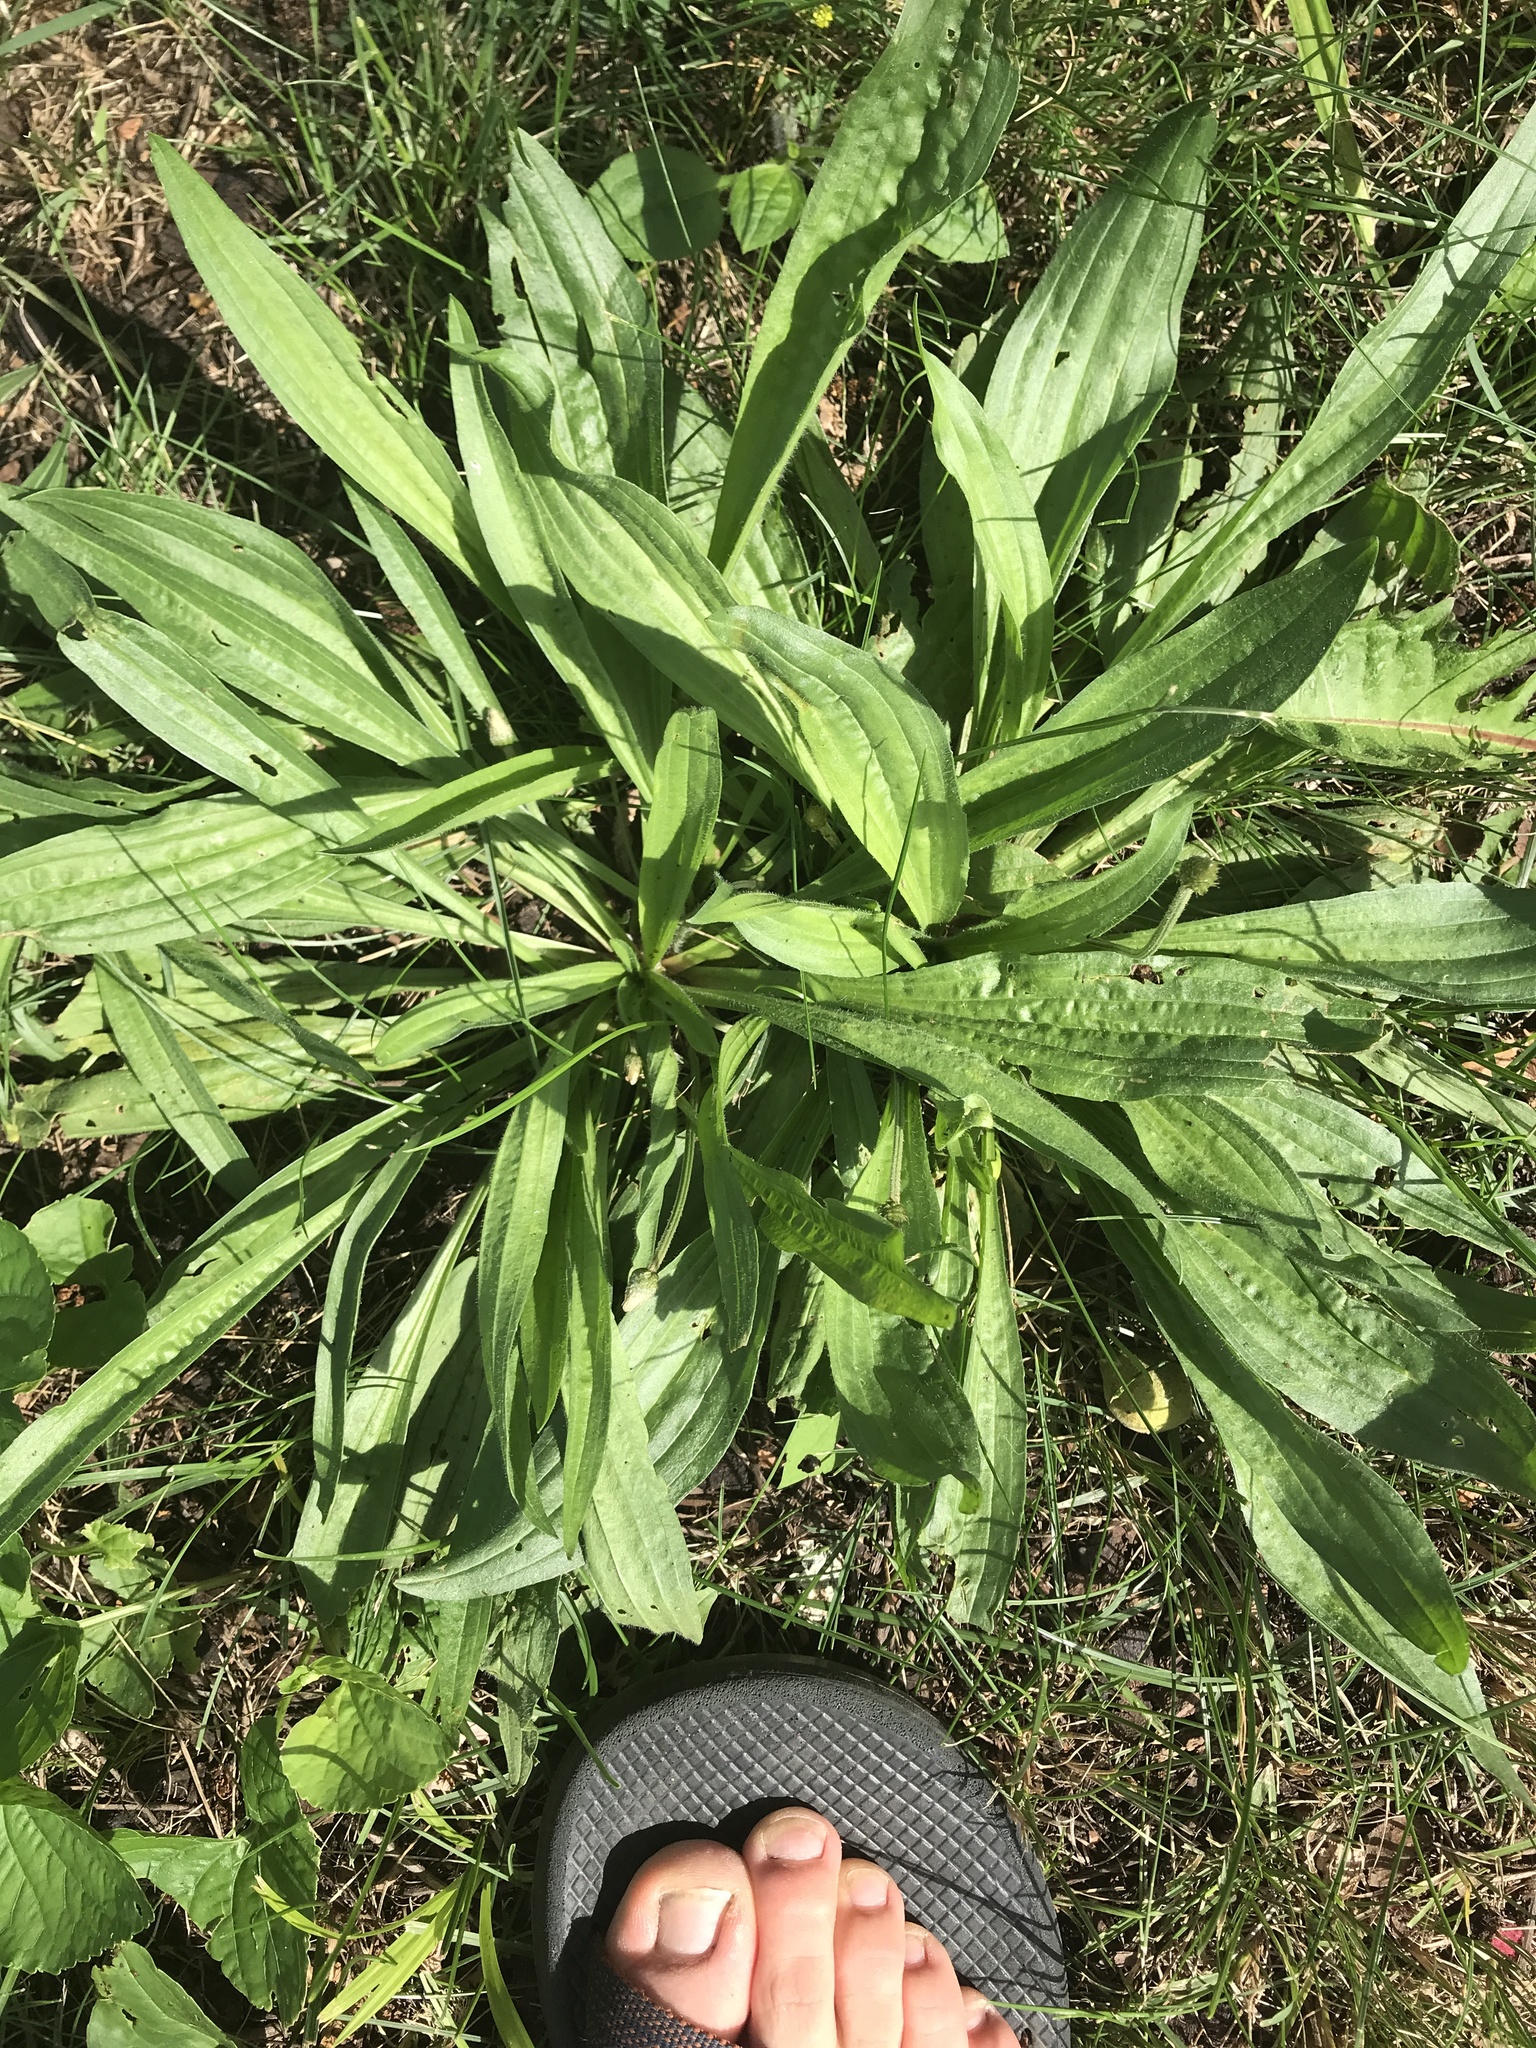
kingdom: Plantae
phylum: Tracheophyta
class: Magnoliopsida
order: Lamiales
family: Plantaginaceae
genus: Plantago
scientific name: Plantago lanceolata
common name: Ribwort plantain
